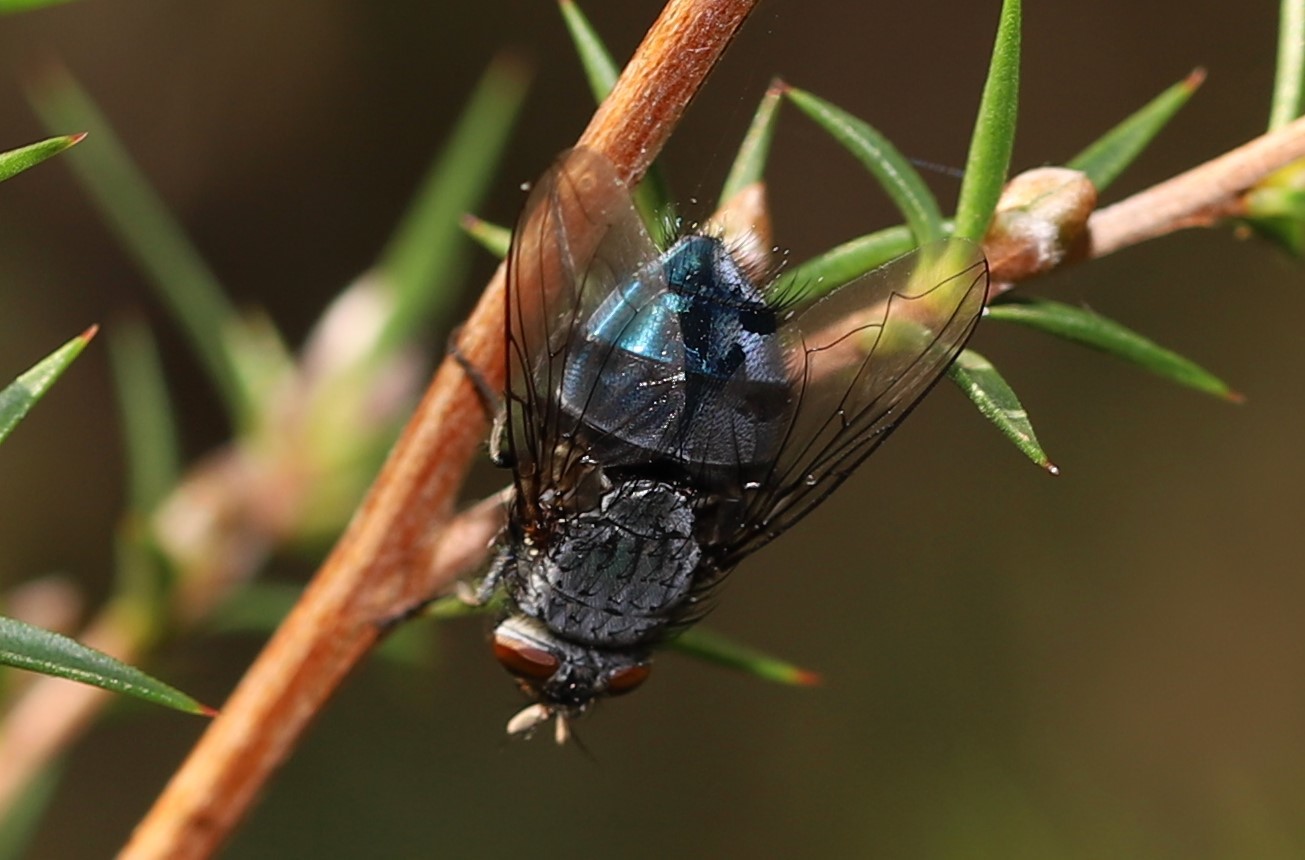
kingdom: Animalia
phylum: Arthropoda
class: Insecta
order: Diptera
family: Calliphoridae
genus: Calliphora
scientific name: Calliphora vicina
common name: Common blow flie
